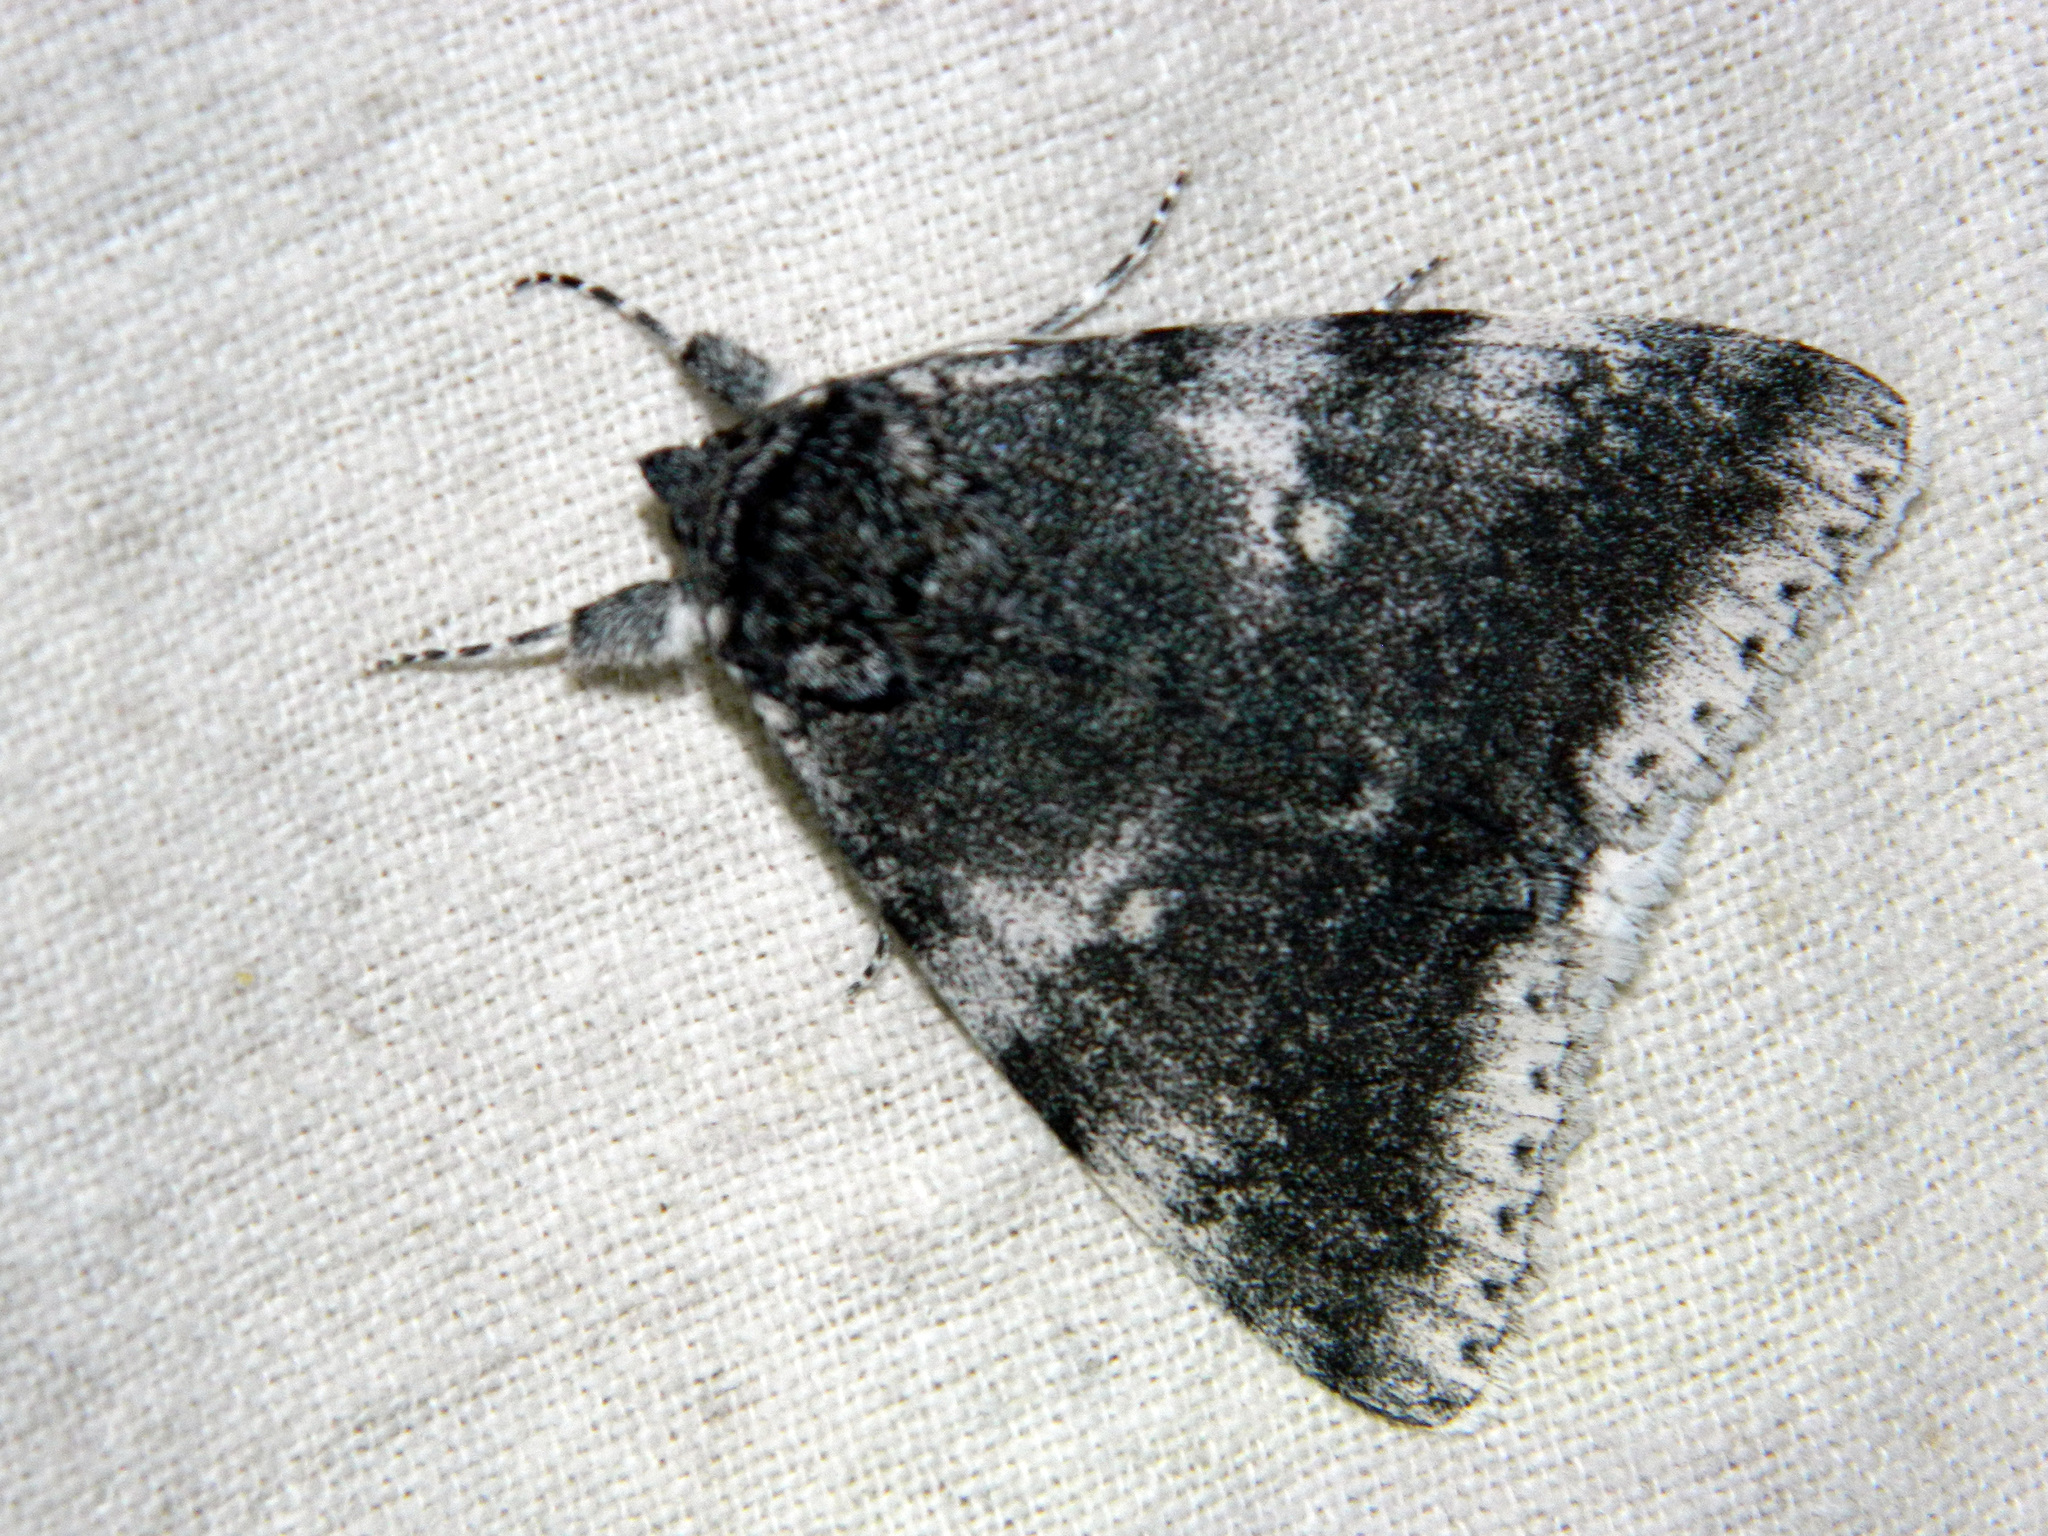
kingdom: Animalia
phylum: Arthropoda
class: Insecta
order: Lepidoptera
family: Erebidae
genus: Catocala
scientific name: Catocala relicta
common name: White underwing
